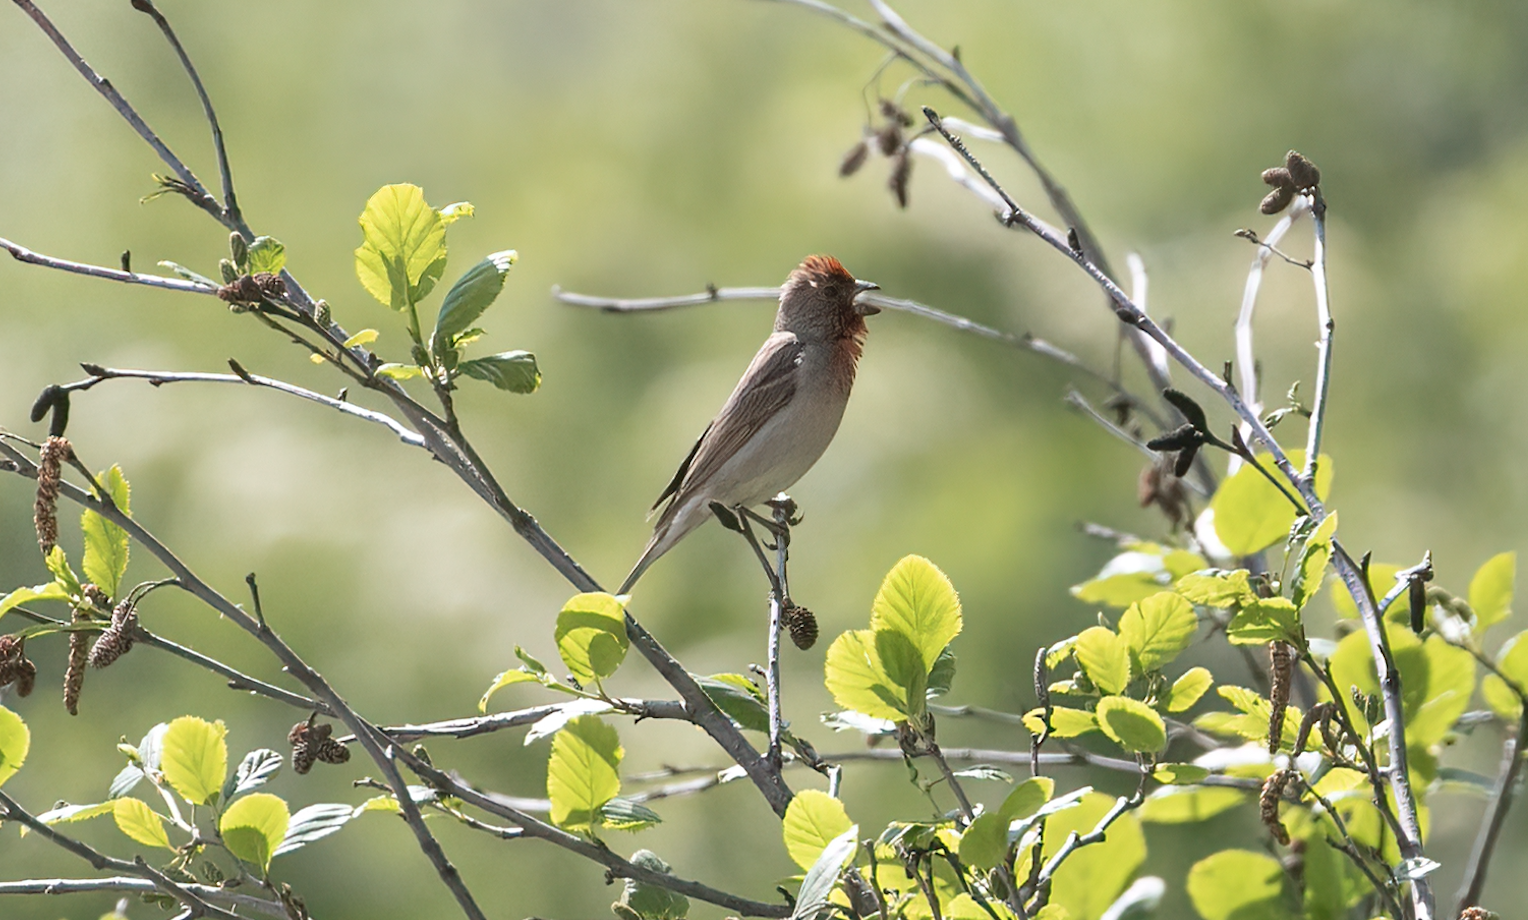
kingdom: Animalia
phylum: Chordata
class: Aves
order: Passeriformes
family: Fringillidae
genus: Carpodacus
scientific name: Carpodacus erythrinus
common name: Common rosefinch
